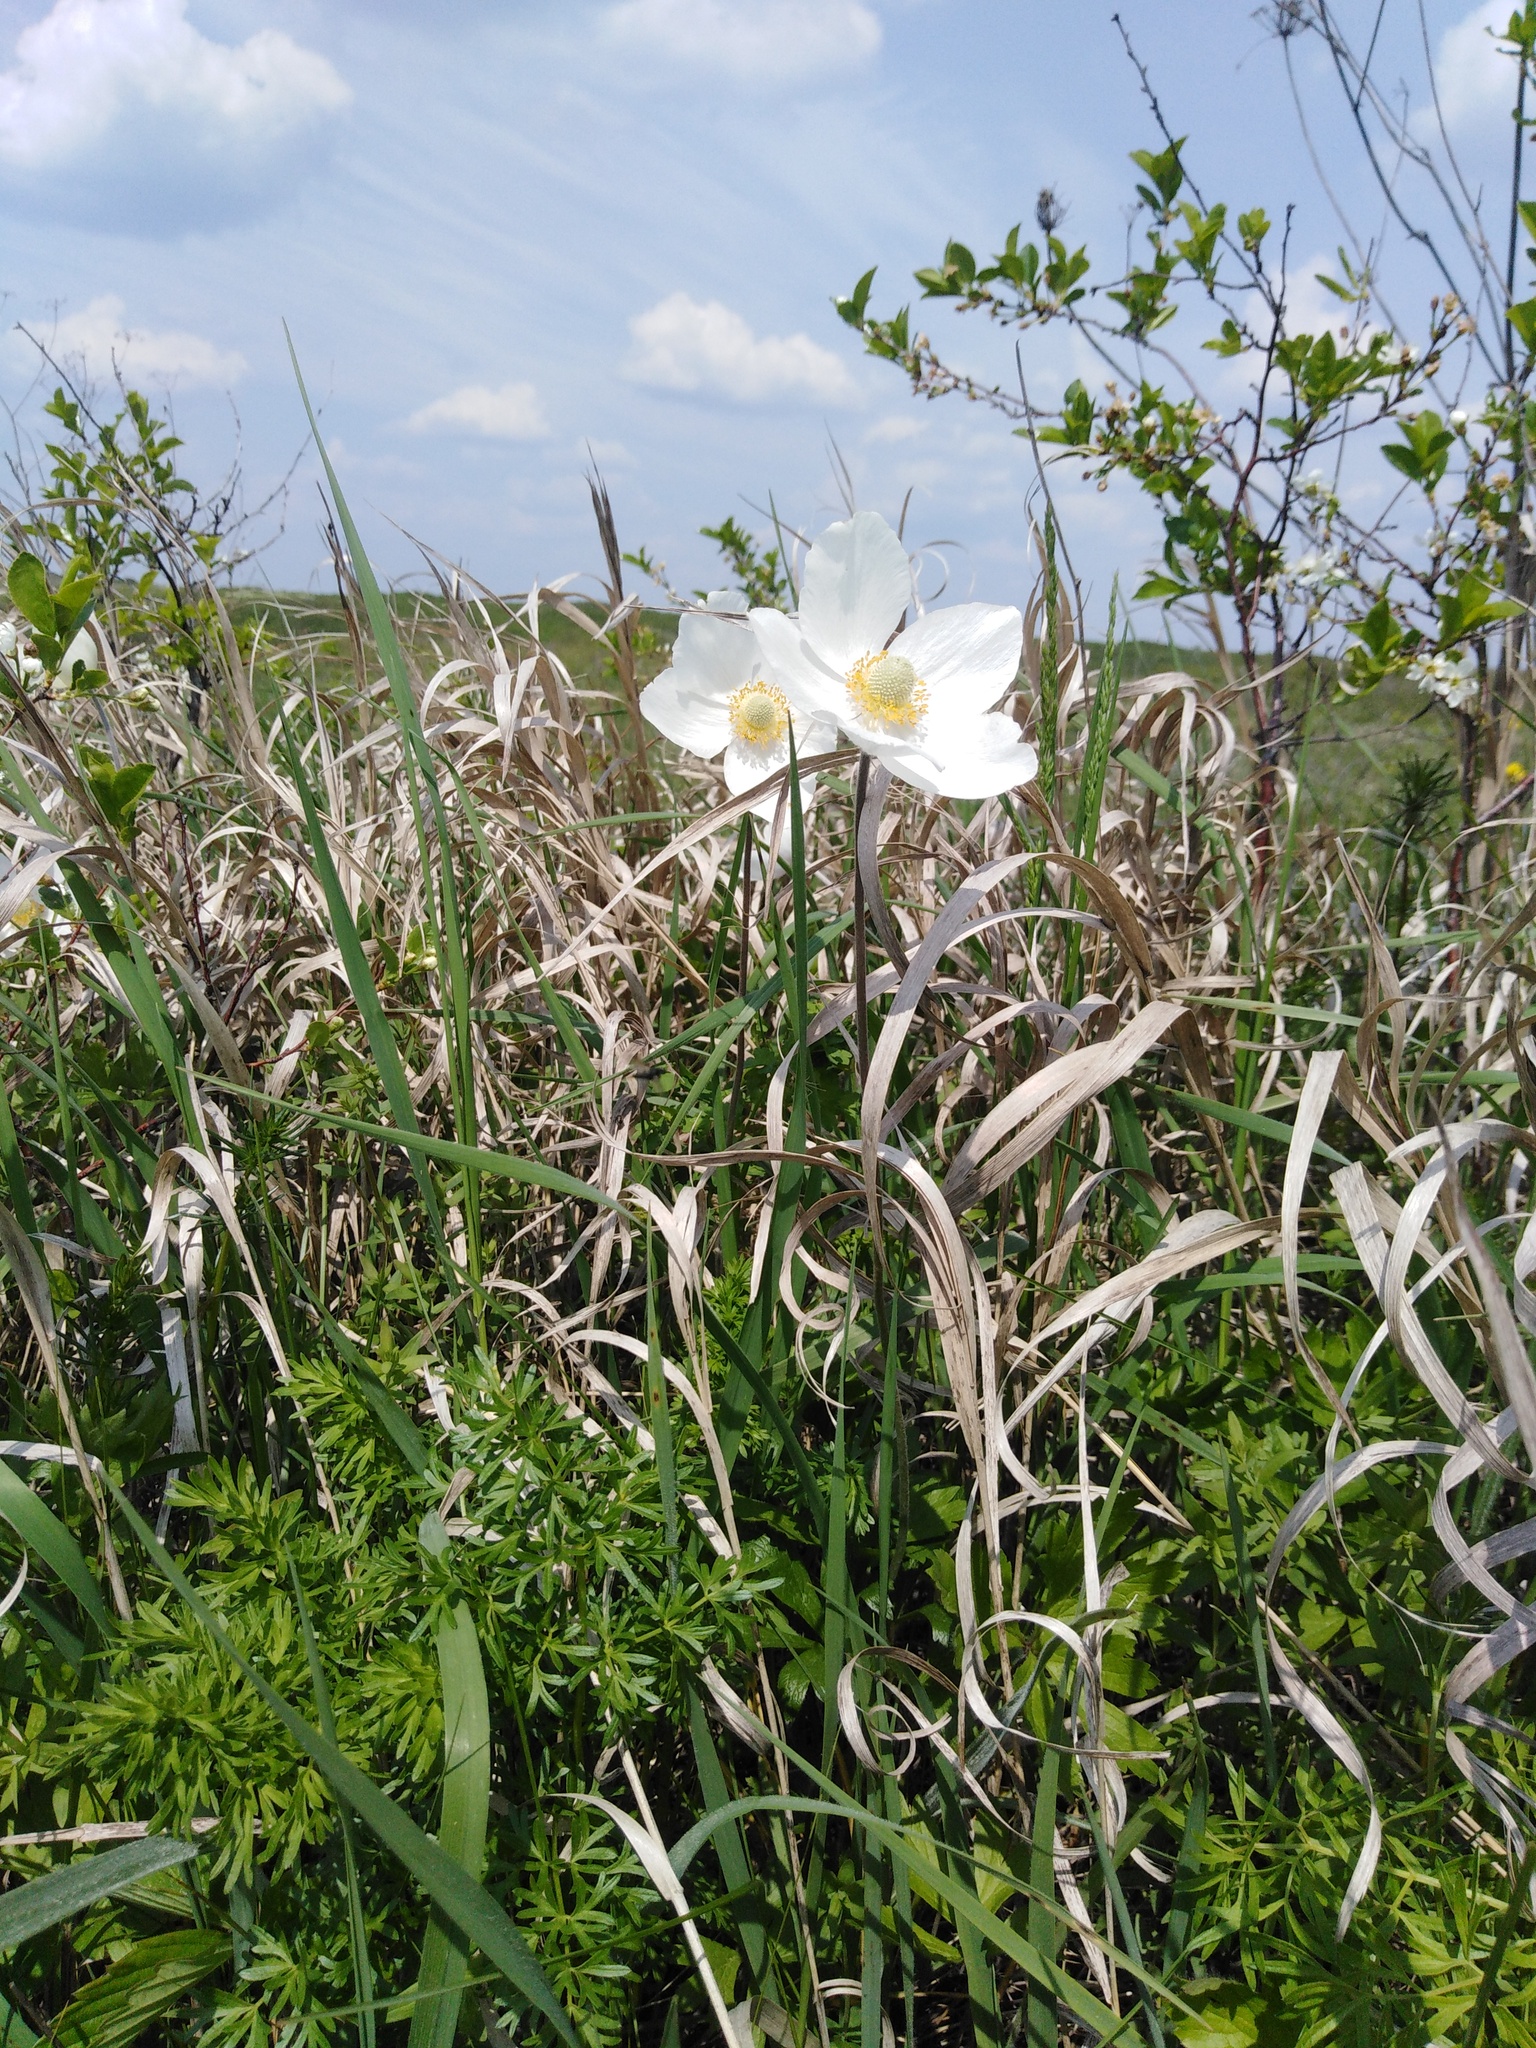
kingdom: Plantae
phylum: Tracheophyta
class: Magnoliopsida
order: Ranunculales
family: Ranunculaceae
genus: Anemone
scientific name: Anemone sylvestris
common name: Snowdrop anemone
